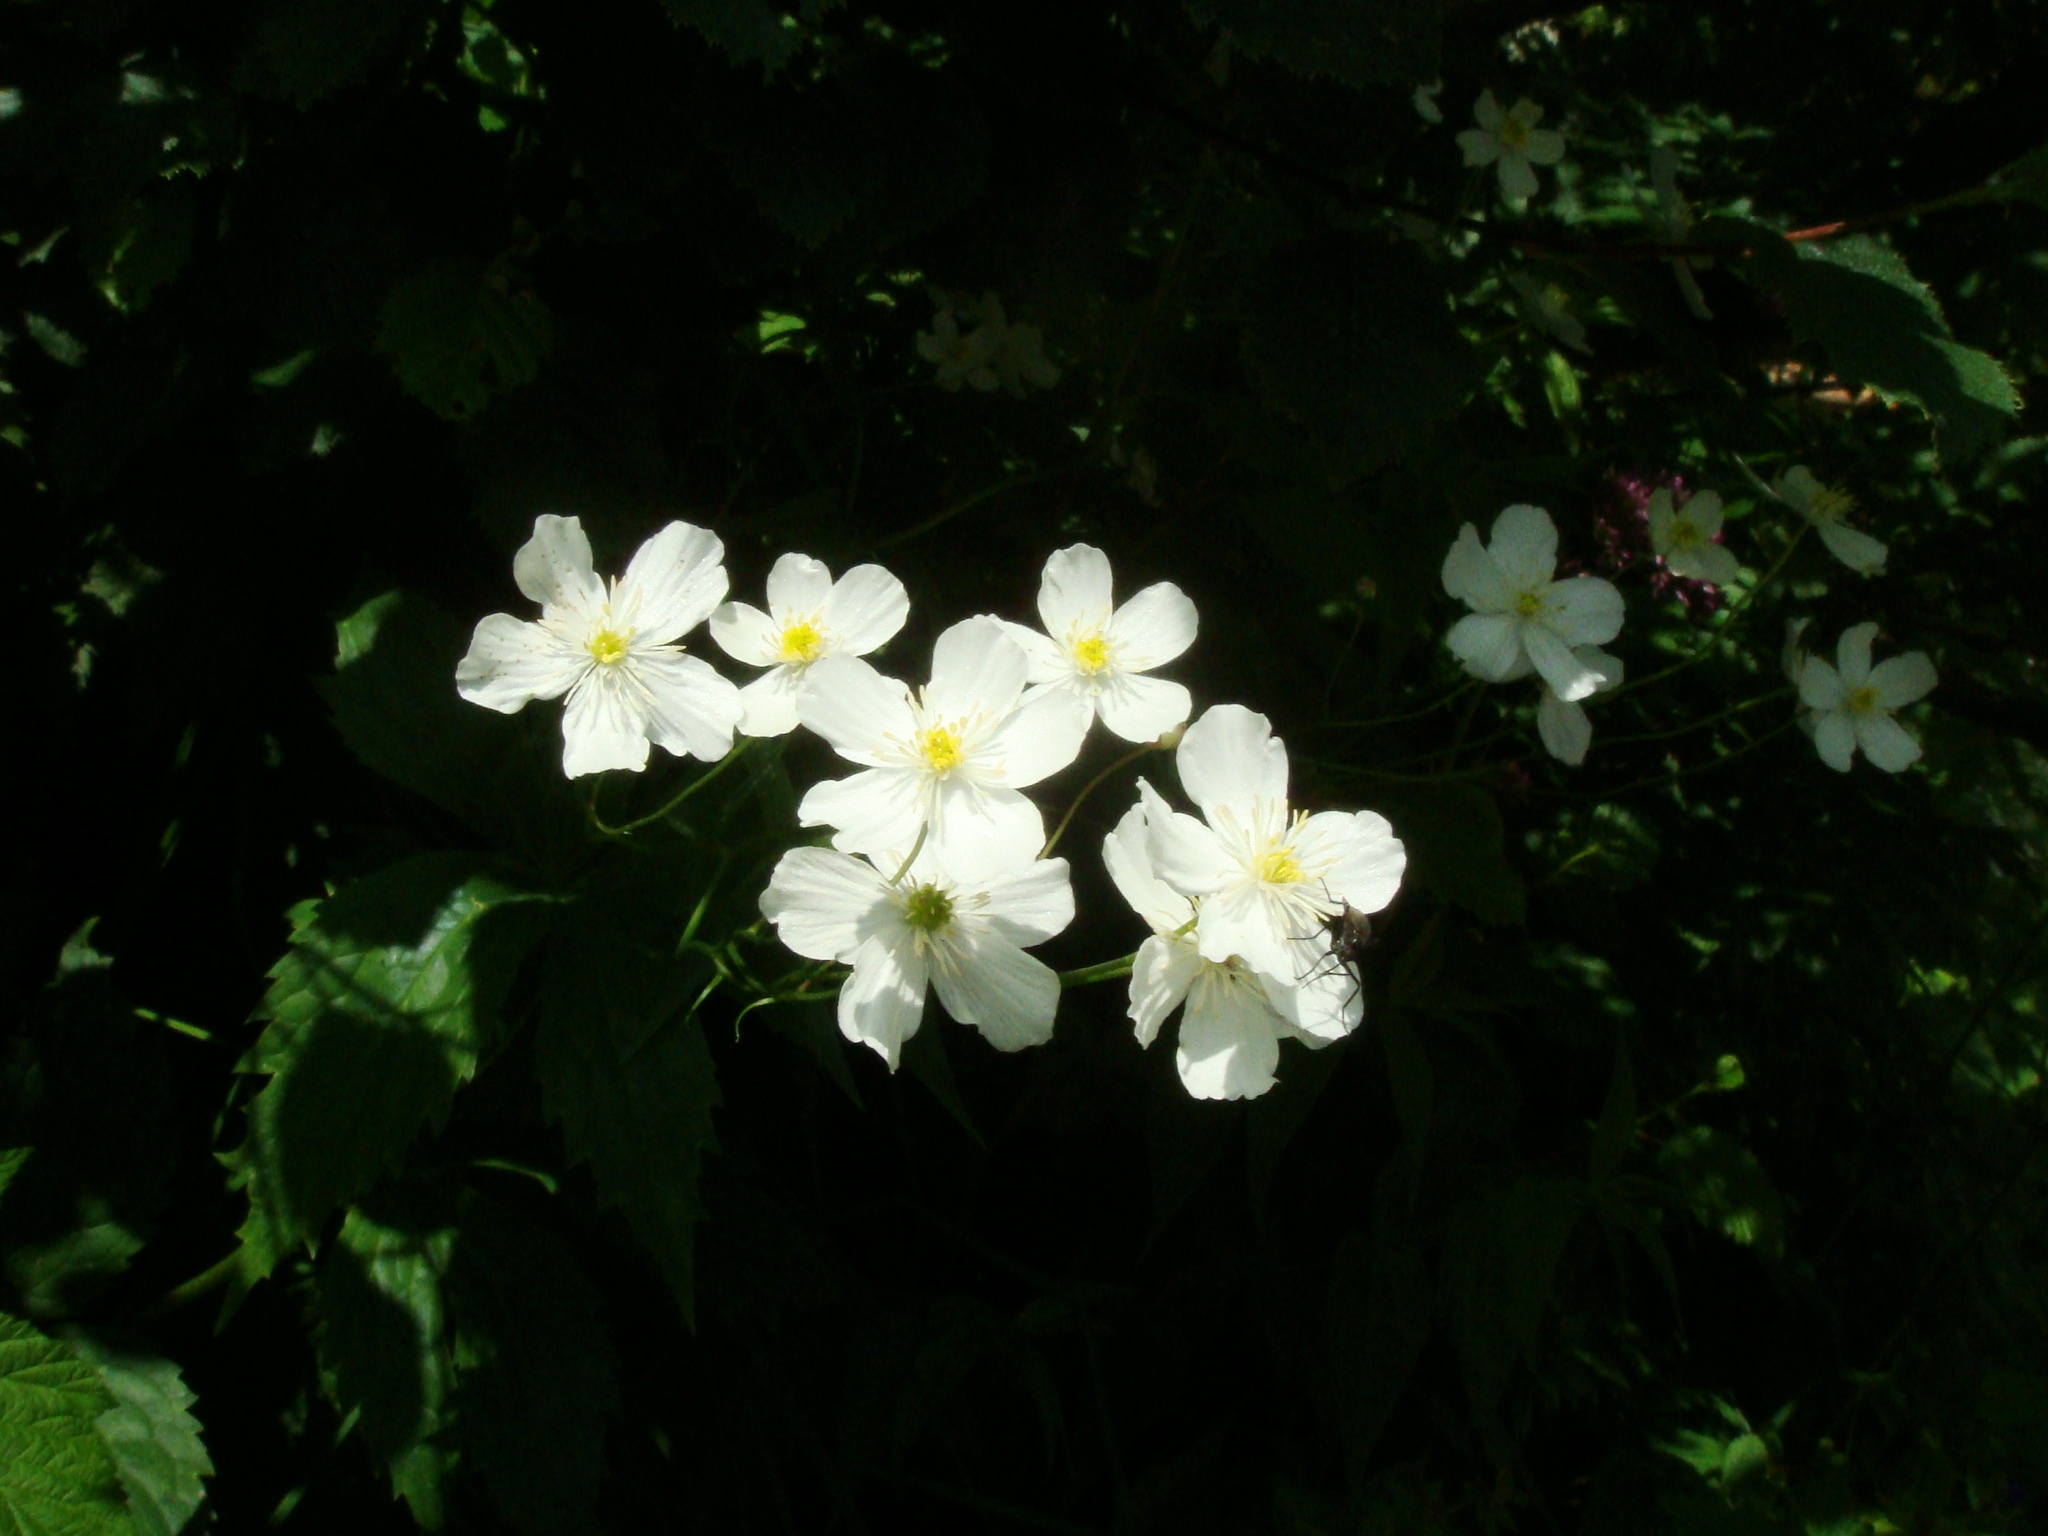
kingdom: Plantae
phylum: Tracheophyta
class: Magnoliopsida
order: Ranunculales
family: Ranunculaceae
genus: Ranunculus
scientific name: Ranunculus platanifolius
